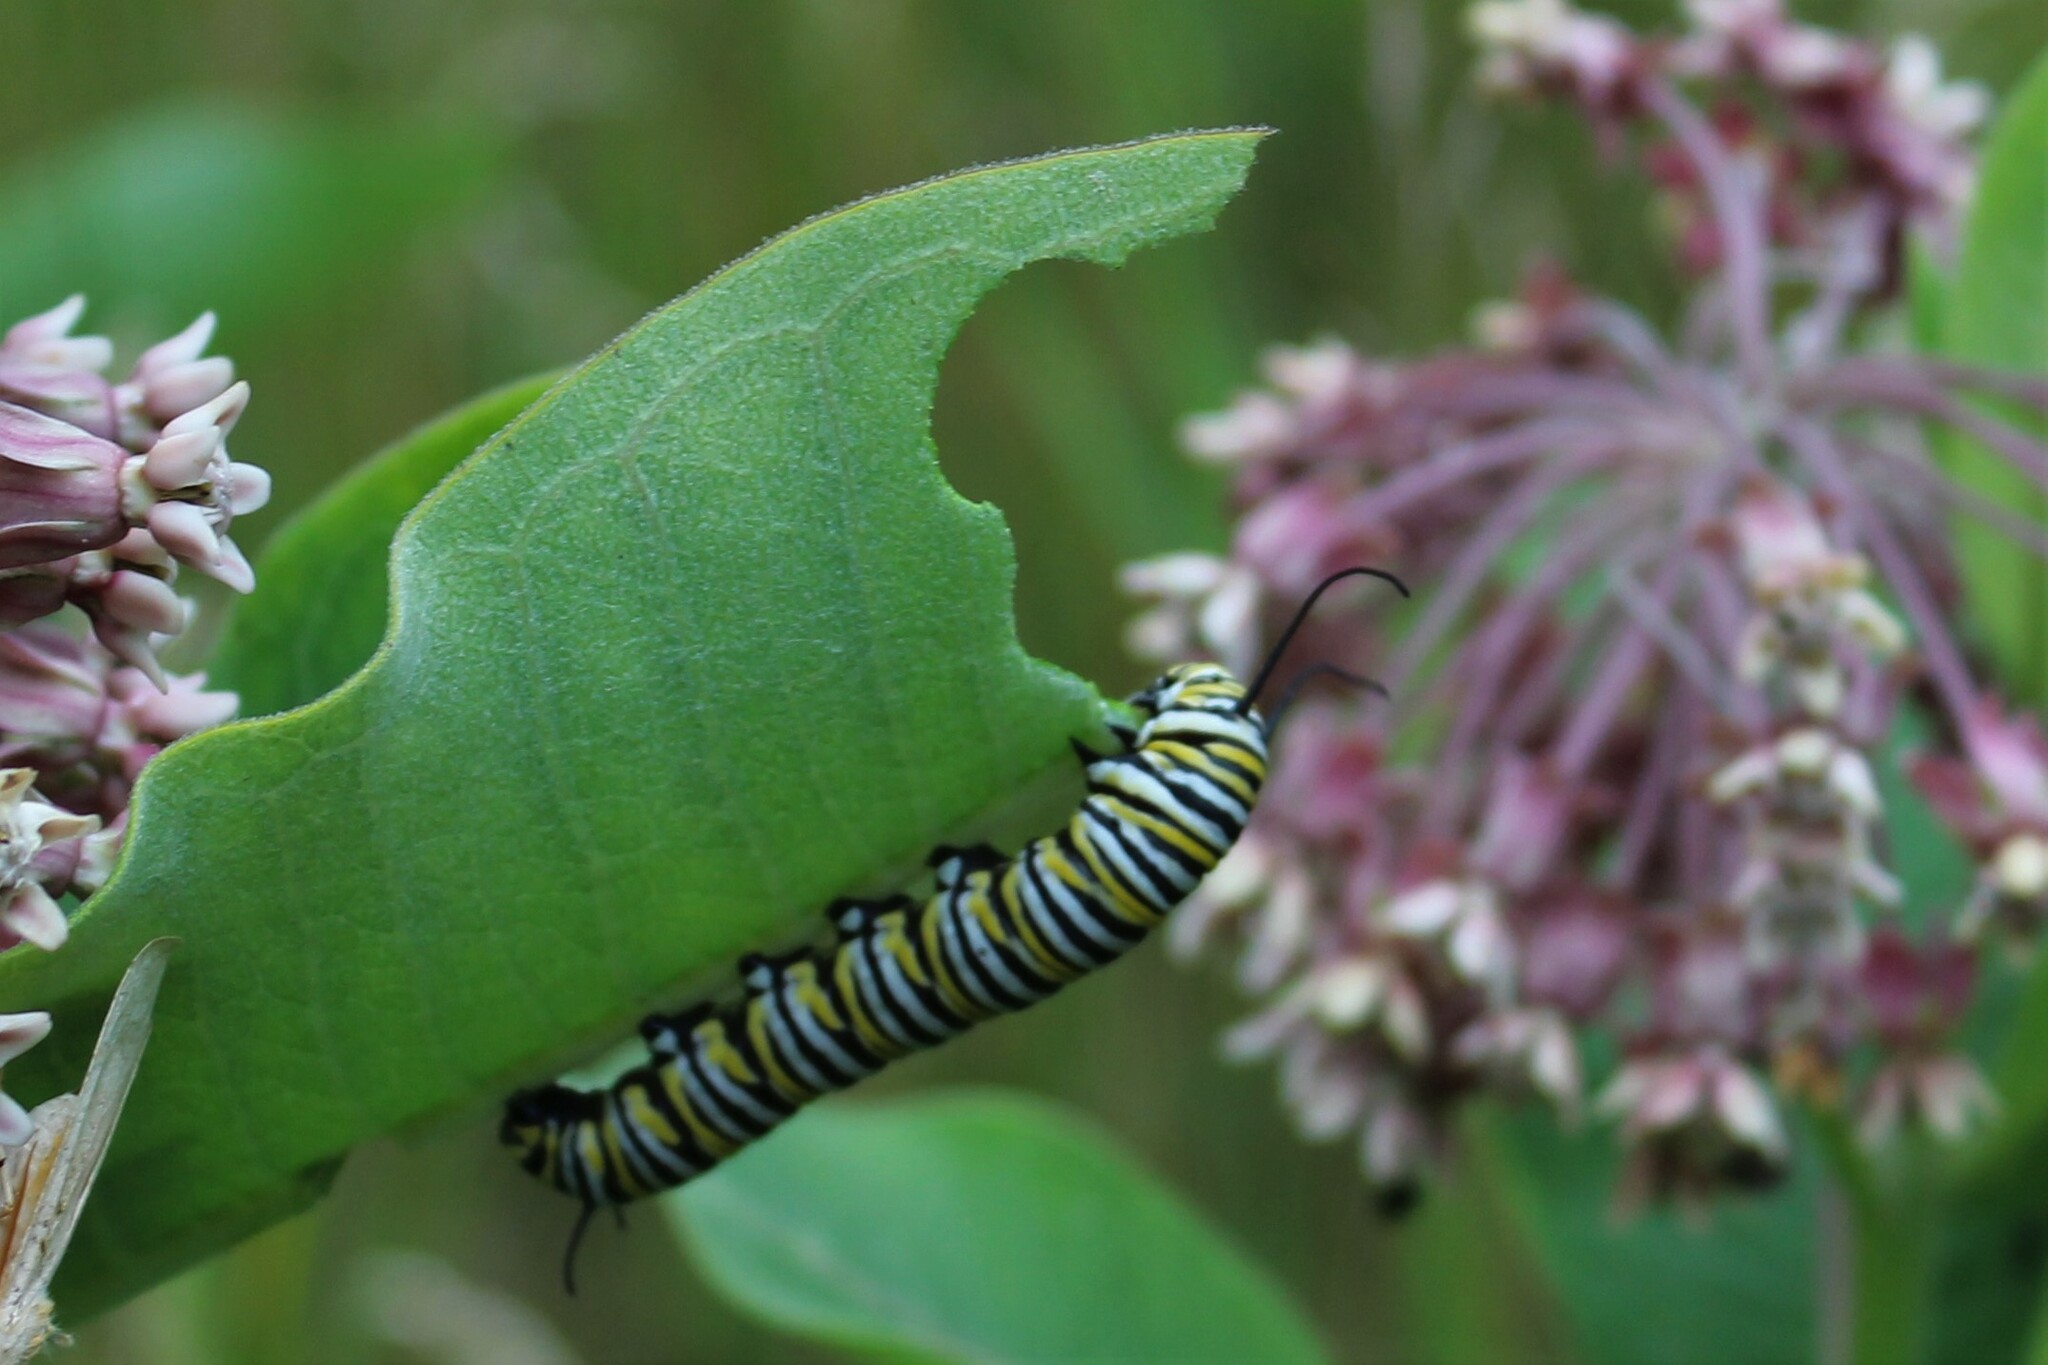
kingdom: Animalia
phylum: Arthropoda
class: Insecta
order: Lepidoptera
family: Nymphalidae
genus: Danaus
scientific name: Danaus plexippus
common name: Monarch
